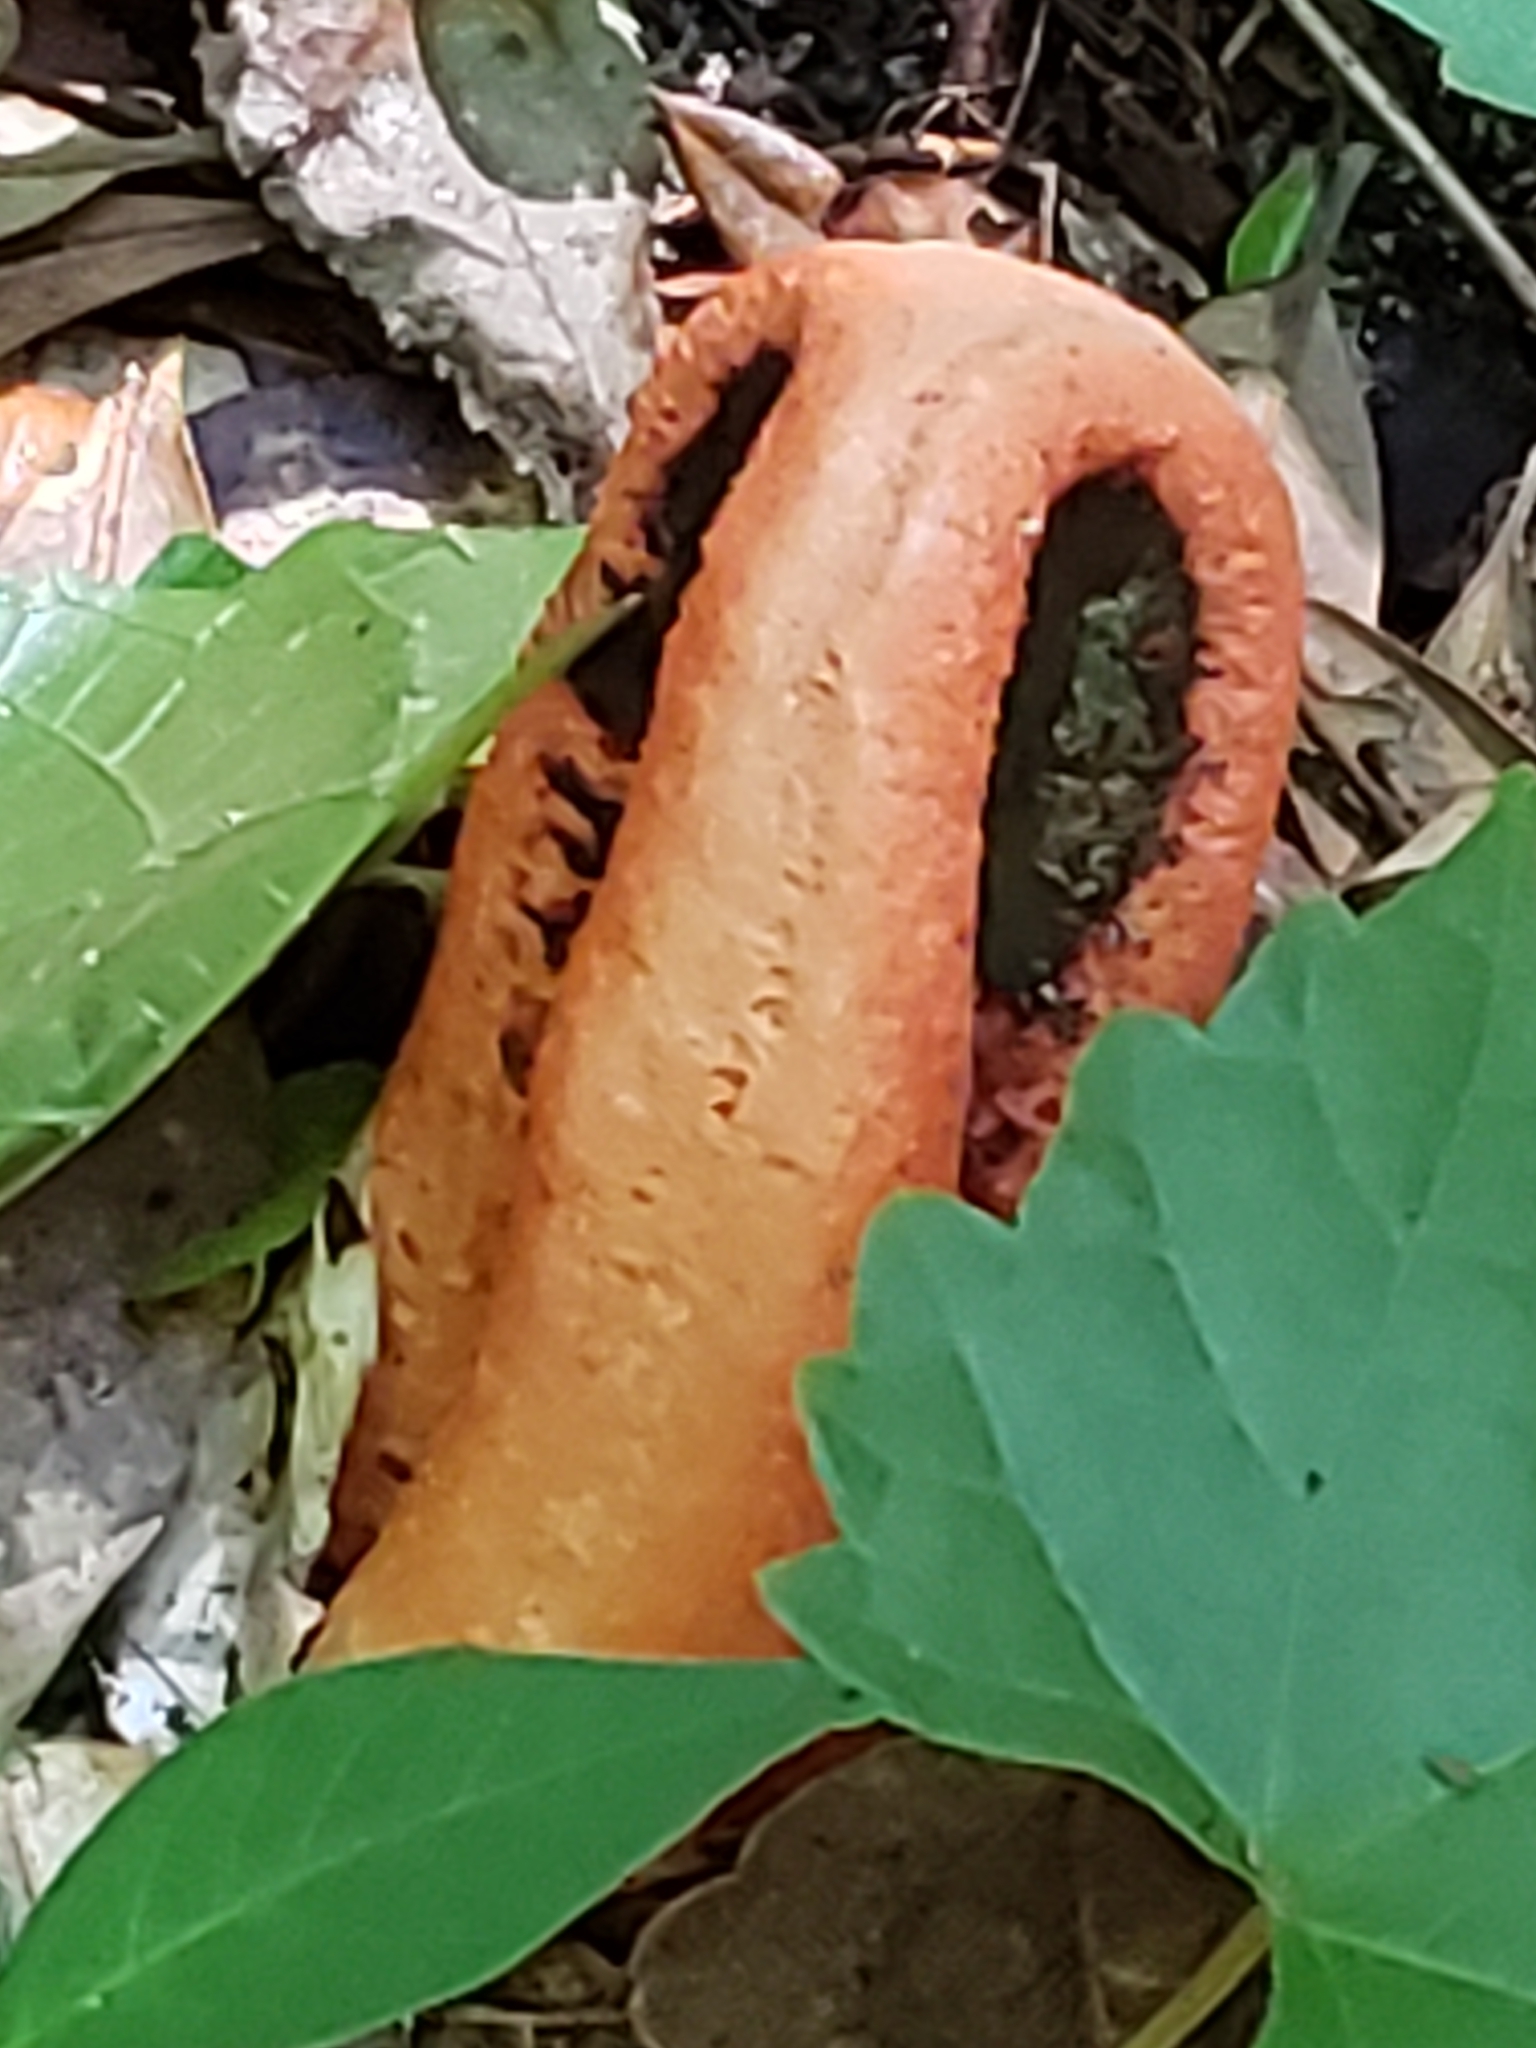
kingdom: Fungi
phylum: Basidiomycota
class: Agaricomycetes
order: Phallales
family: Phallaceae
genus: Clathrus
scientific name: Clathrus columnatus
